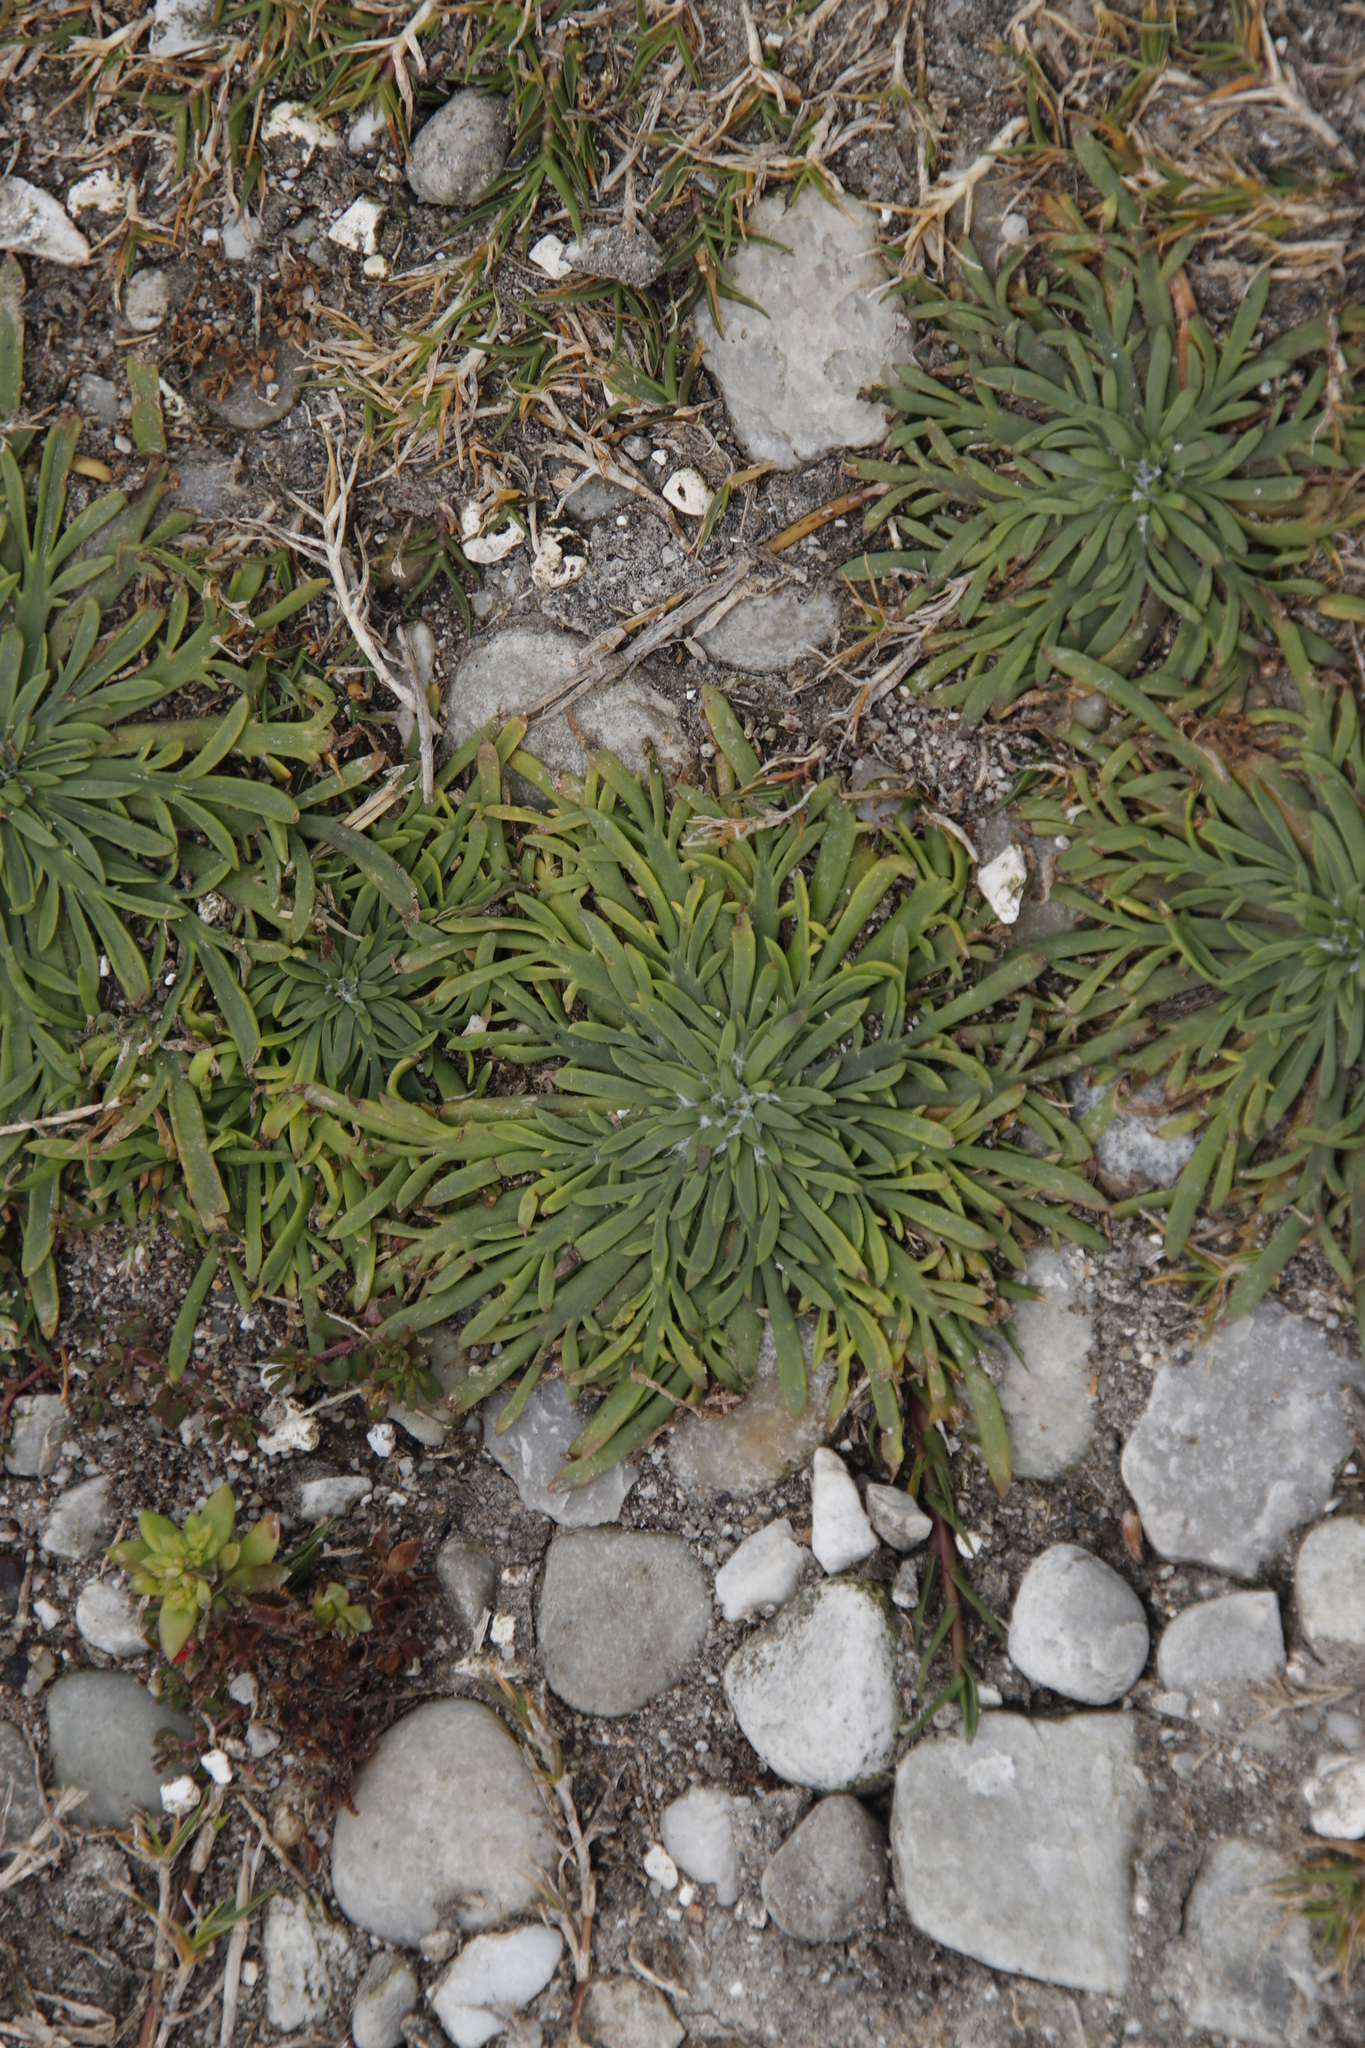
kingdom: Plantae
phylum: Tracheophyta
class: Magnoliopsida
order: Lamiales
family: Plantaginaceae
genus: Plantago
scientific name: Plantago coronopus
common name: Buck's-horn plantain
